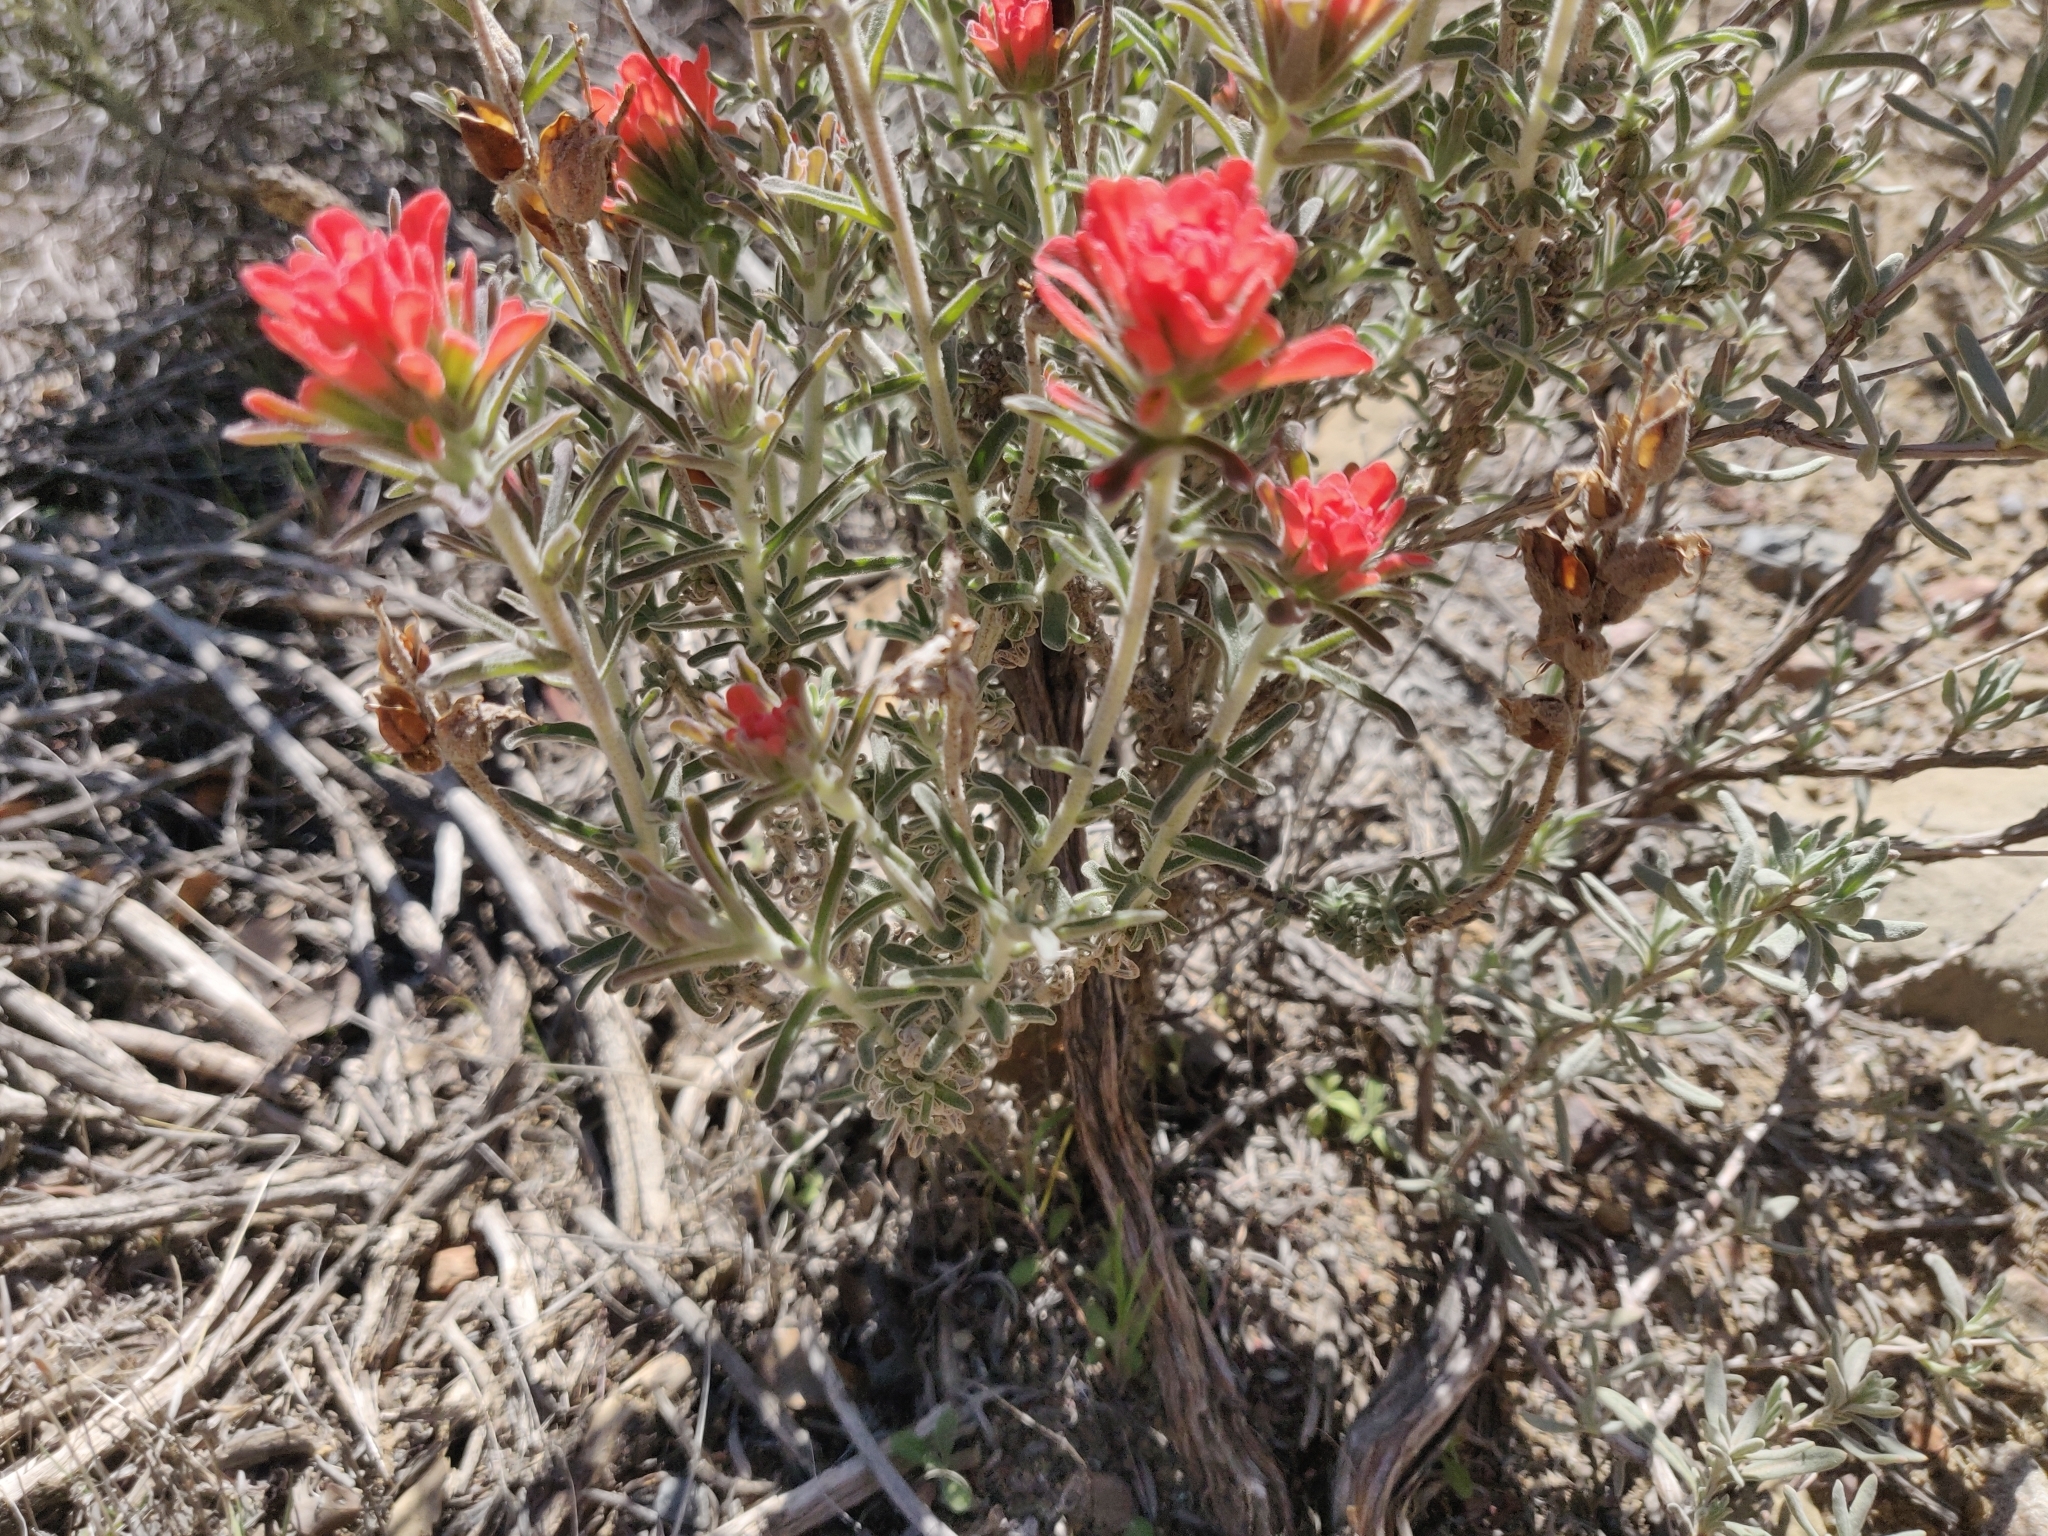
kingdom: Plantae
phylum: Tracheophyta
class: Magnoliopsida
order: Lamiales
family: Orobanchaceae
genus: Castilleja
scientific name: Castilleja foliolosa
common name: Woolly indian paintbrush
